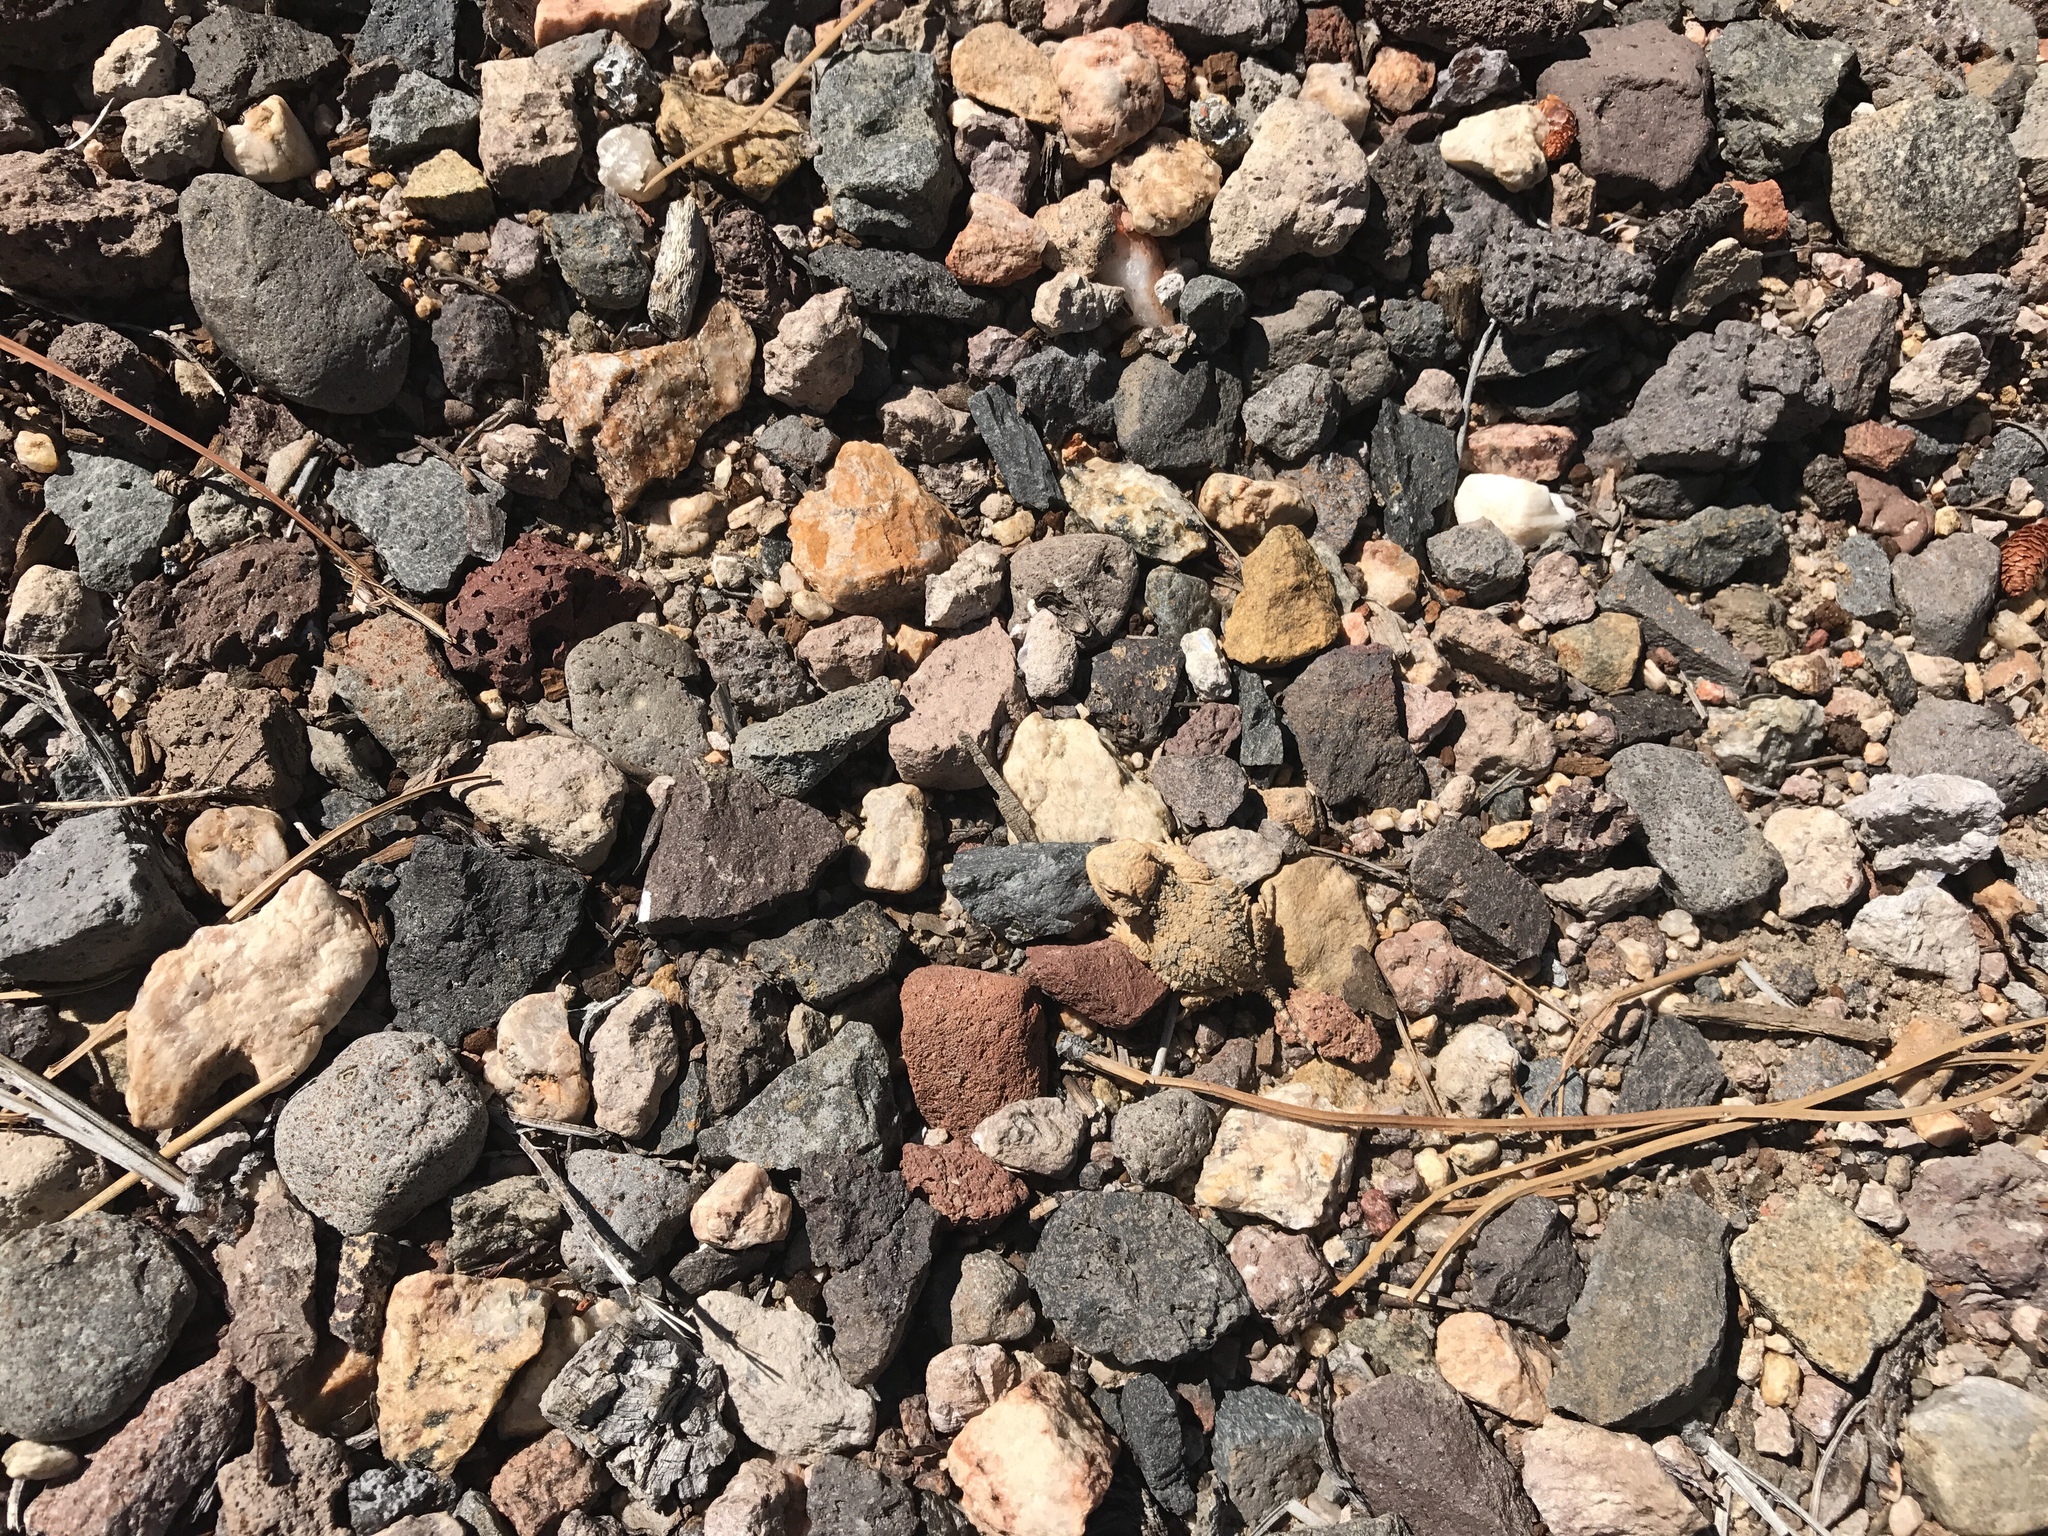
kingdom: Animalia
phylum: Chordata
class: Squamata
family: Phrynosomatidae
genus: Phrynosoma
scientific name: Phrynosoma hernandesi
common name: Greater short-horned lizard
